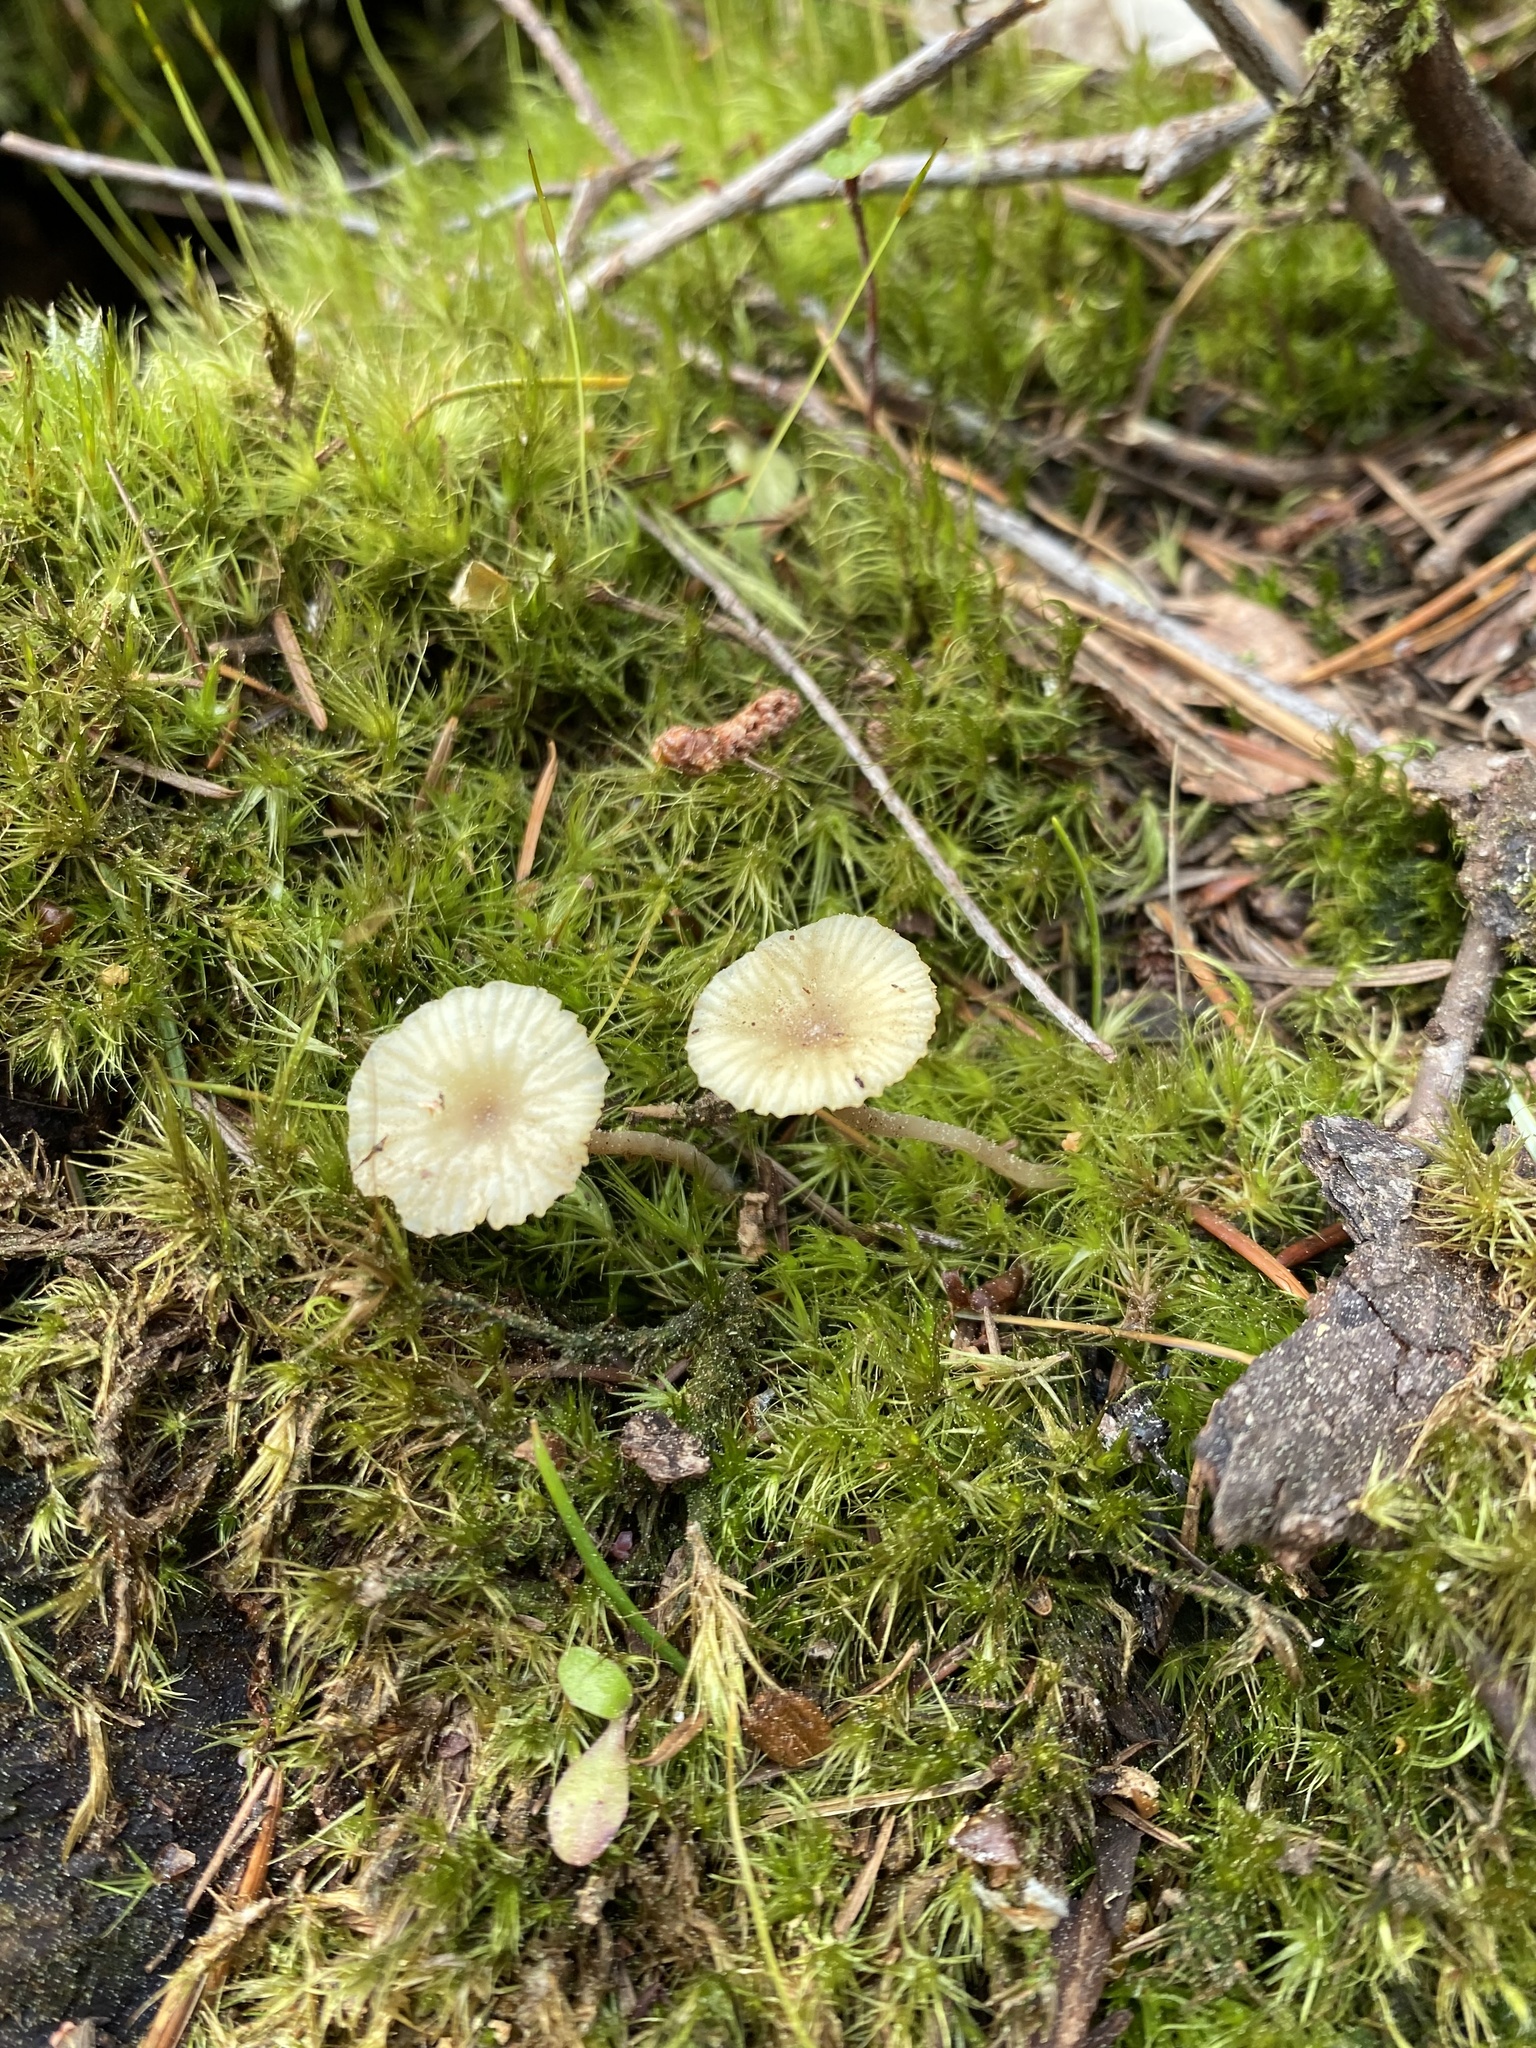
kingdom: Fungi
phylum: Basidiomycota
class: Agaricomycetes
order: Agaricales
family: Hygrophoraceae
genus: Lichenomphalia
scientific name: Lichenomphalia
